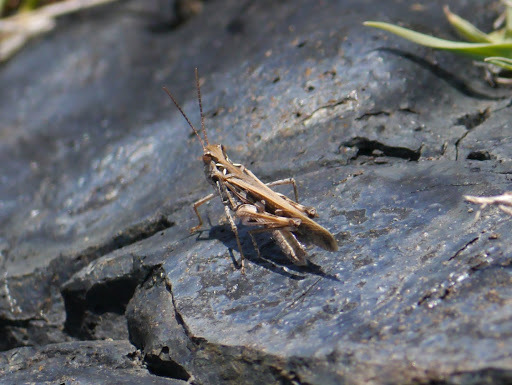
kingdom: Animalia
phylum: Arthropoda
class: Insecta
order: Orthoptera
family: Acrididae
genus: Oedaleus
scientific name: Oedaleus abruptus
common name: Grasshopper
